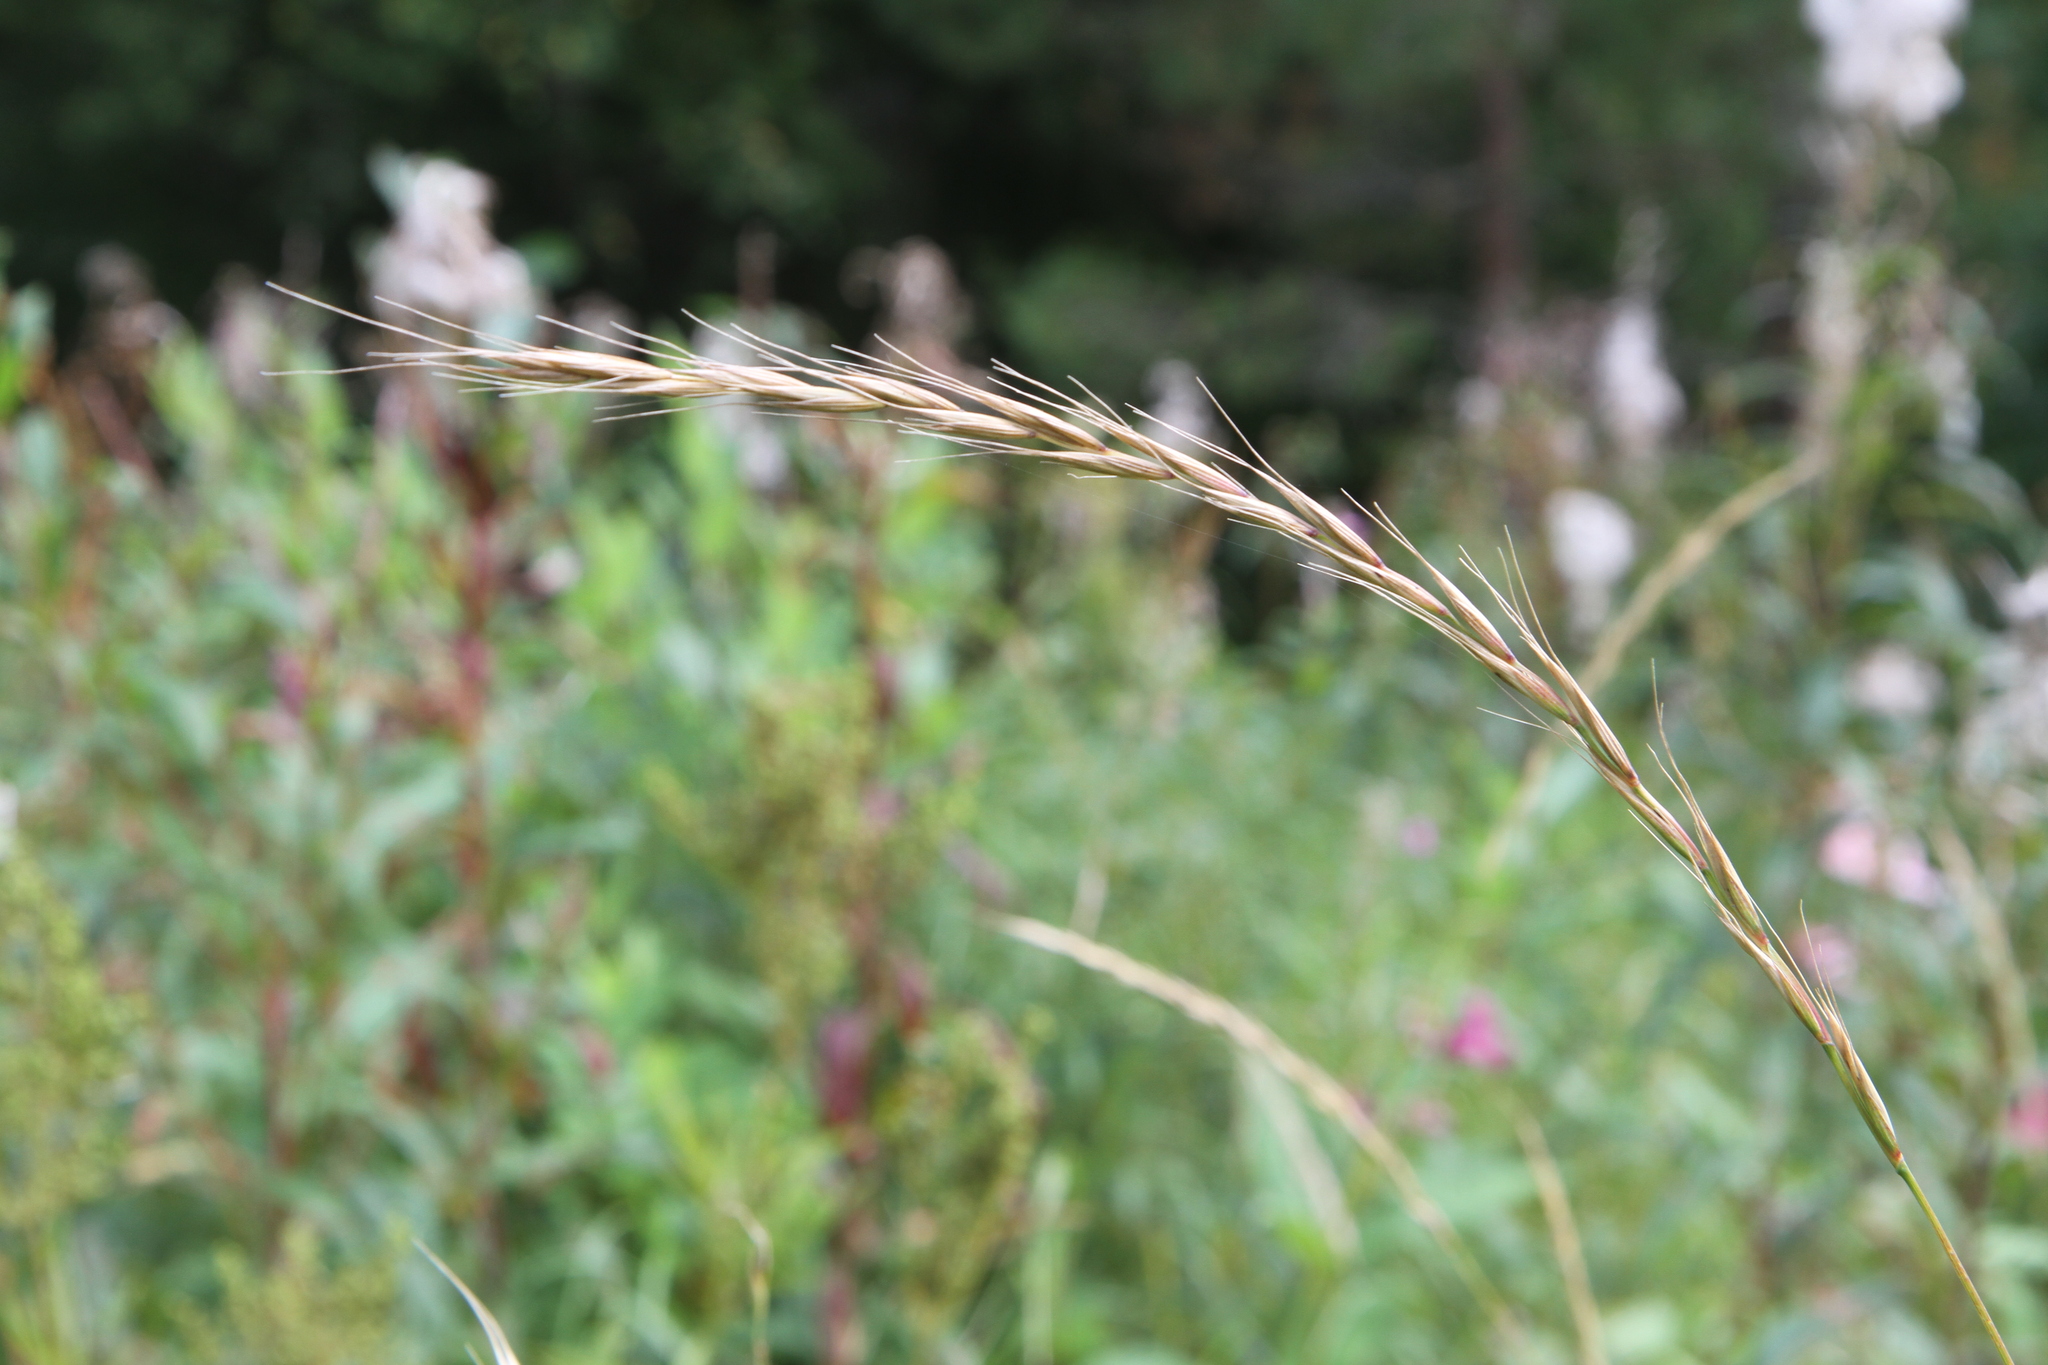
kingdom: Plantae
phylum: Tracheophyta
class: Liliopsida
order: Poales
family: Poaceae
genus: Elymus
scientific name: Elymus caninus
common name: Bearded couch
